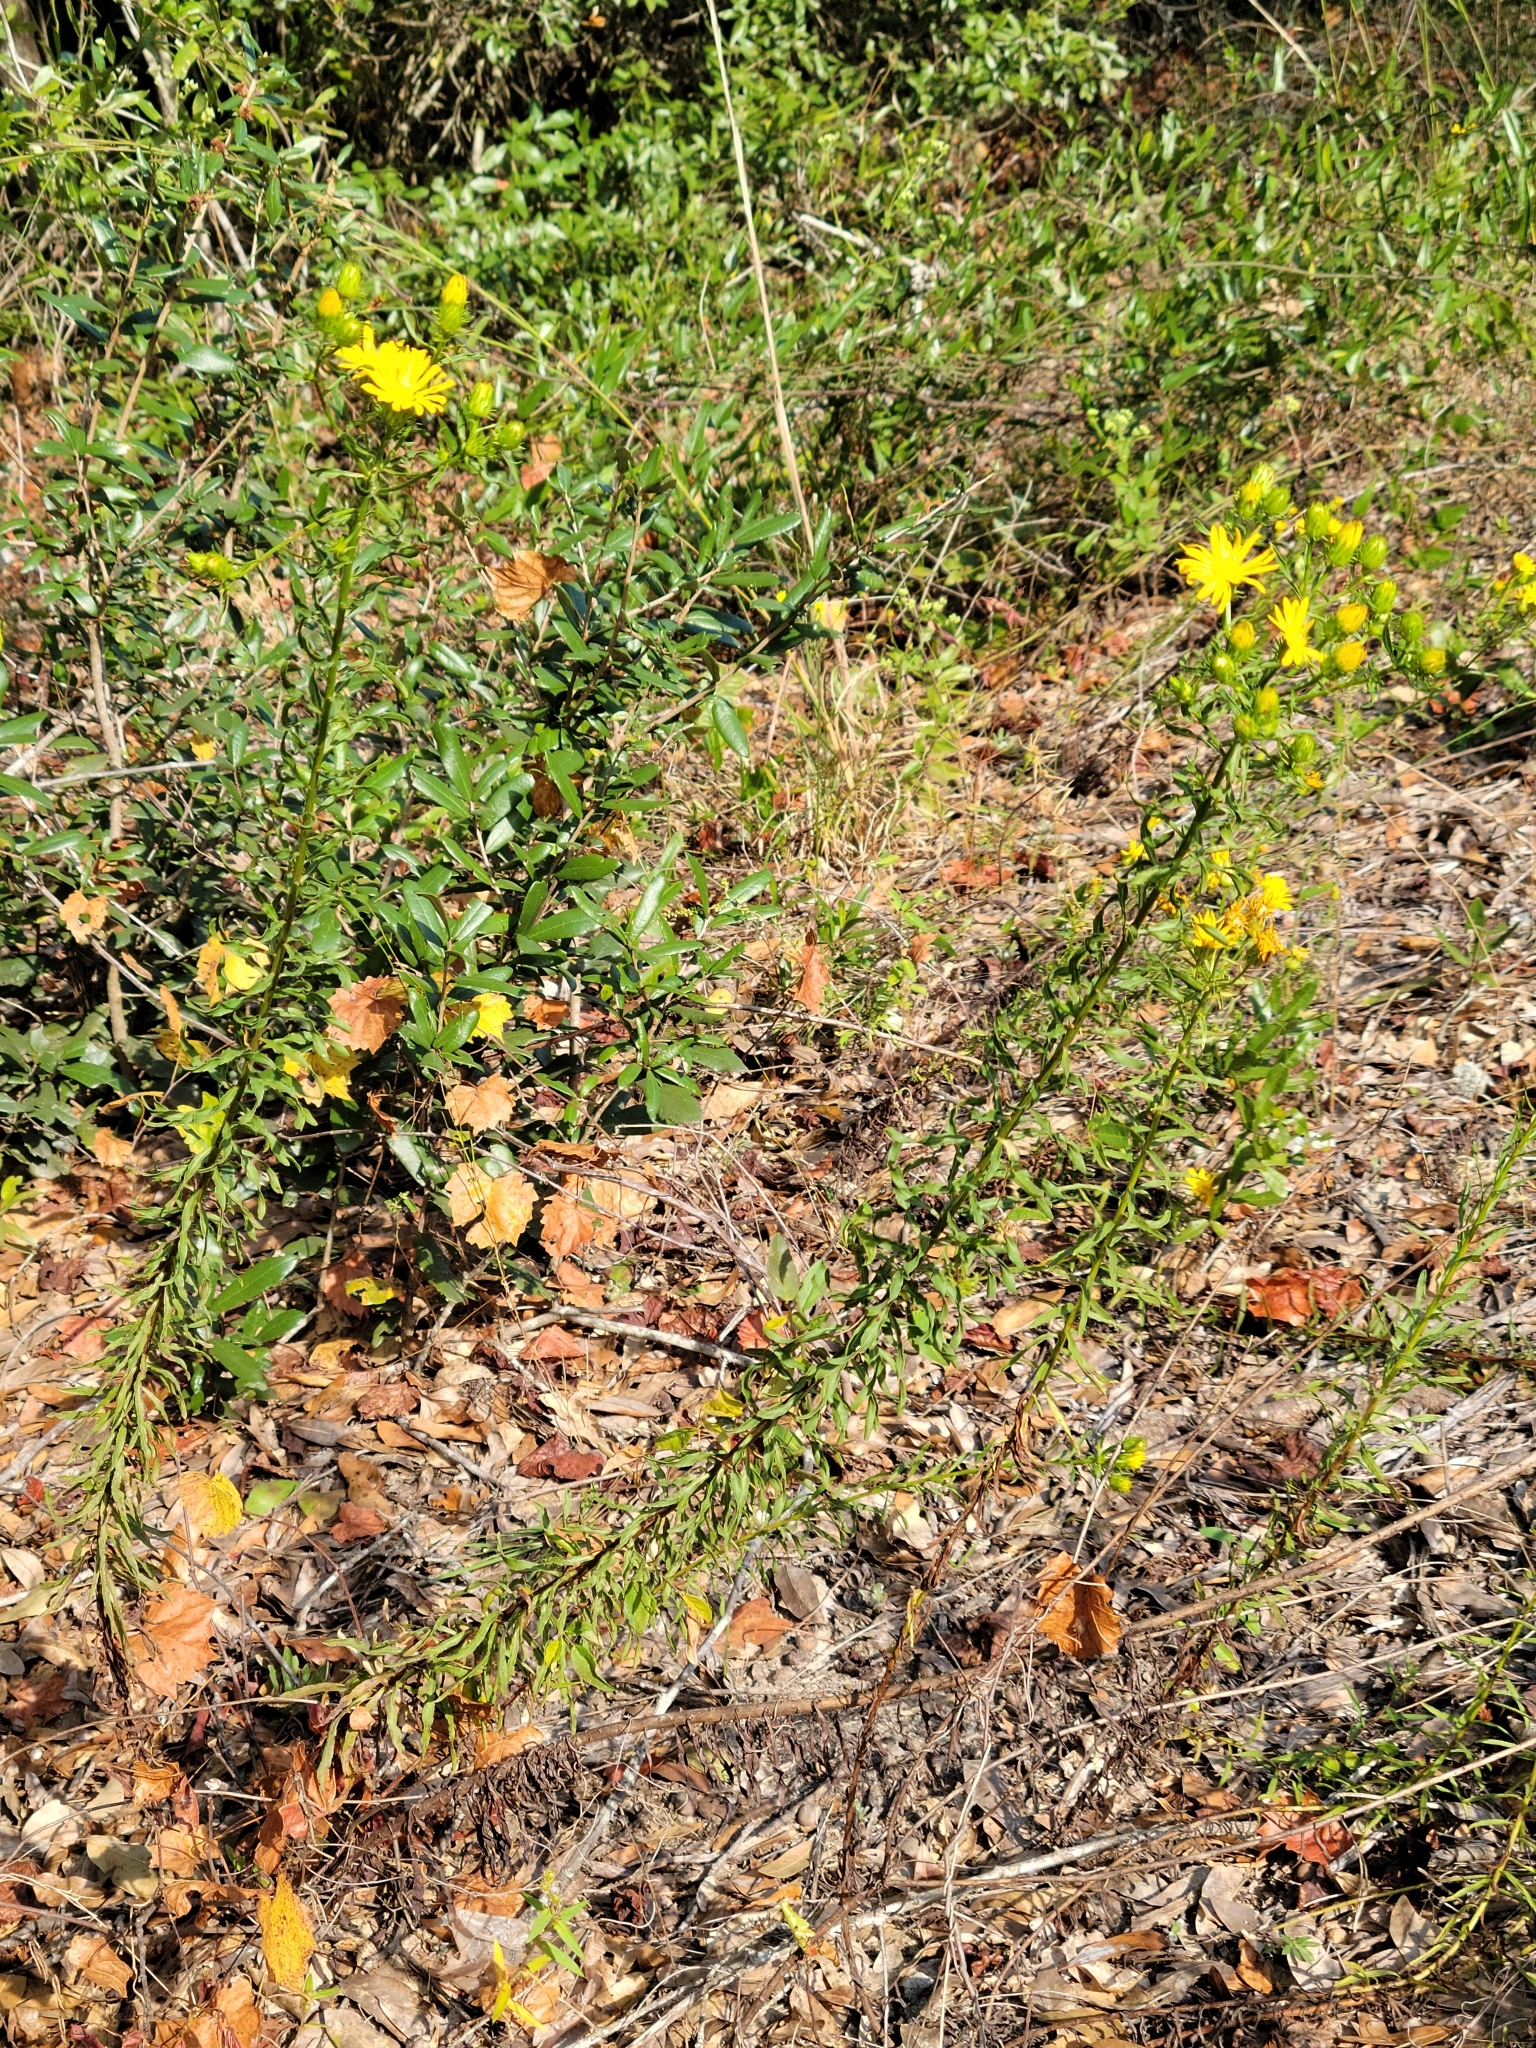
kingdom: Plantae
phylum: Tracheophyta
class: Magnoliopsida
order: Asterales
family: Asteraceae
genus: Chrysopsis
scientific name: Chrysopsis gossypina
